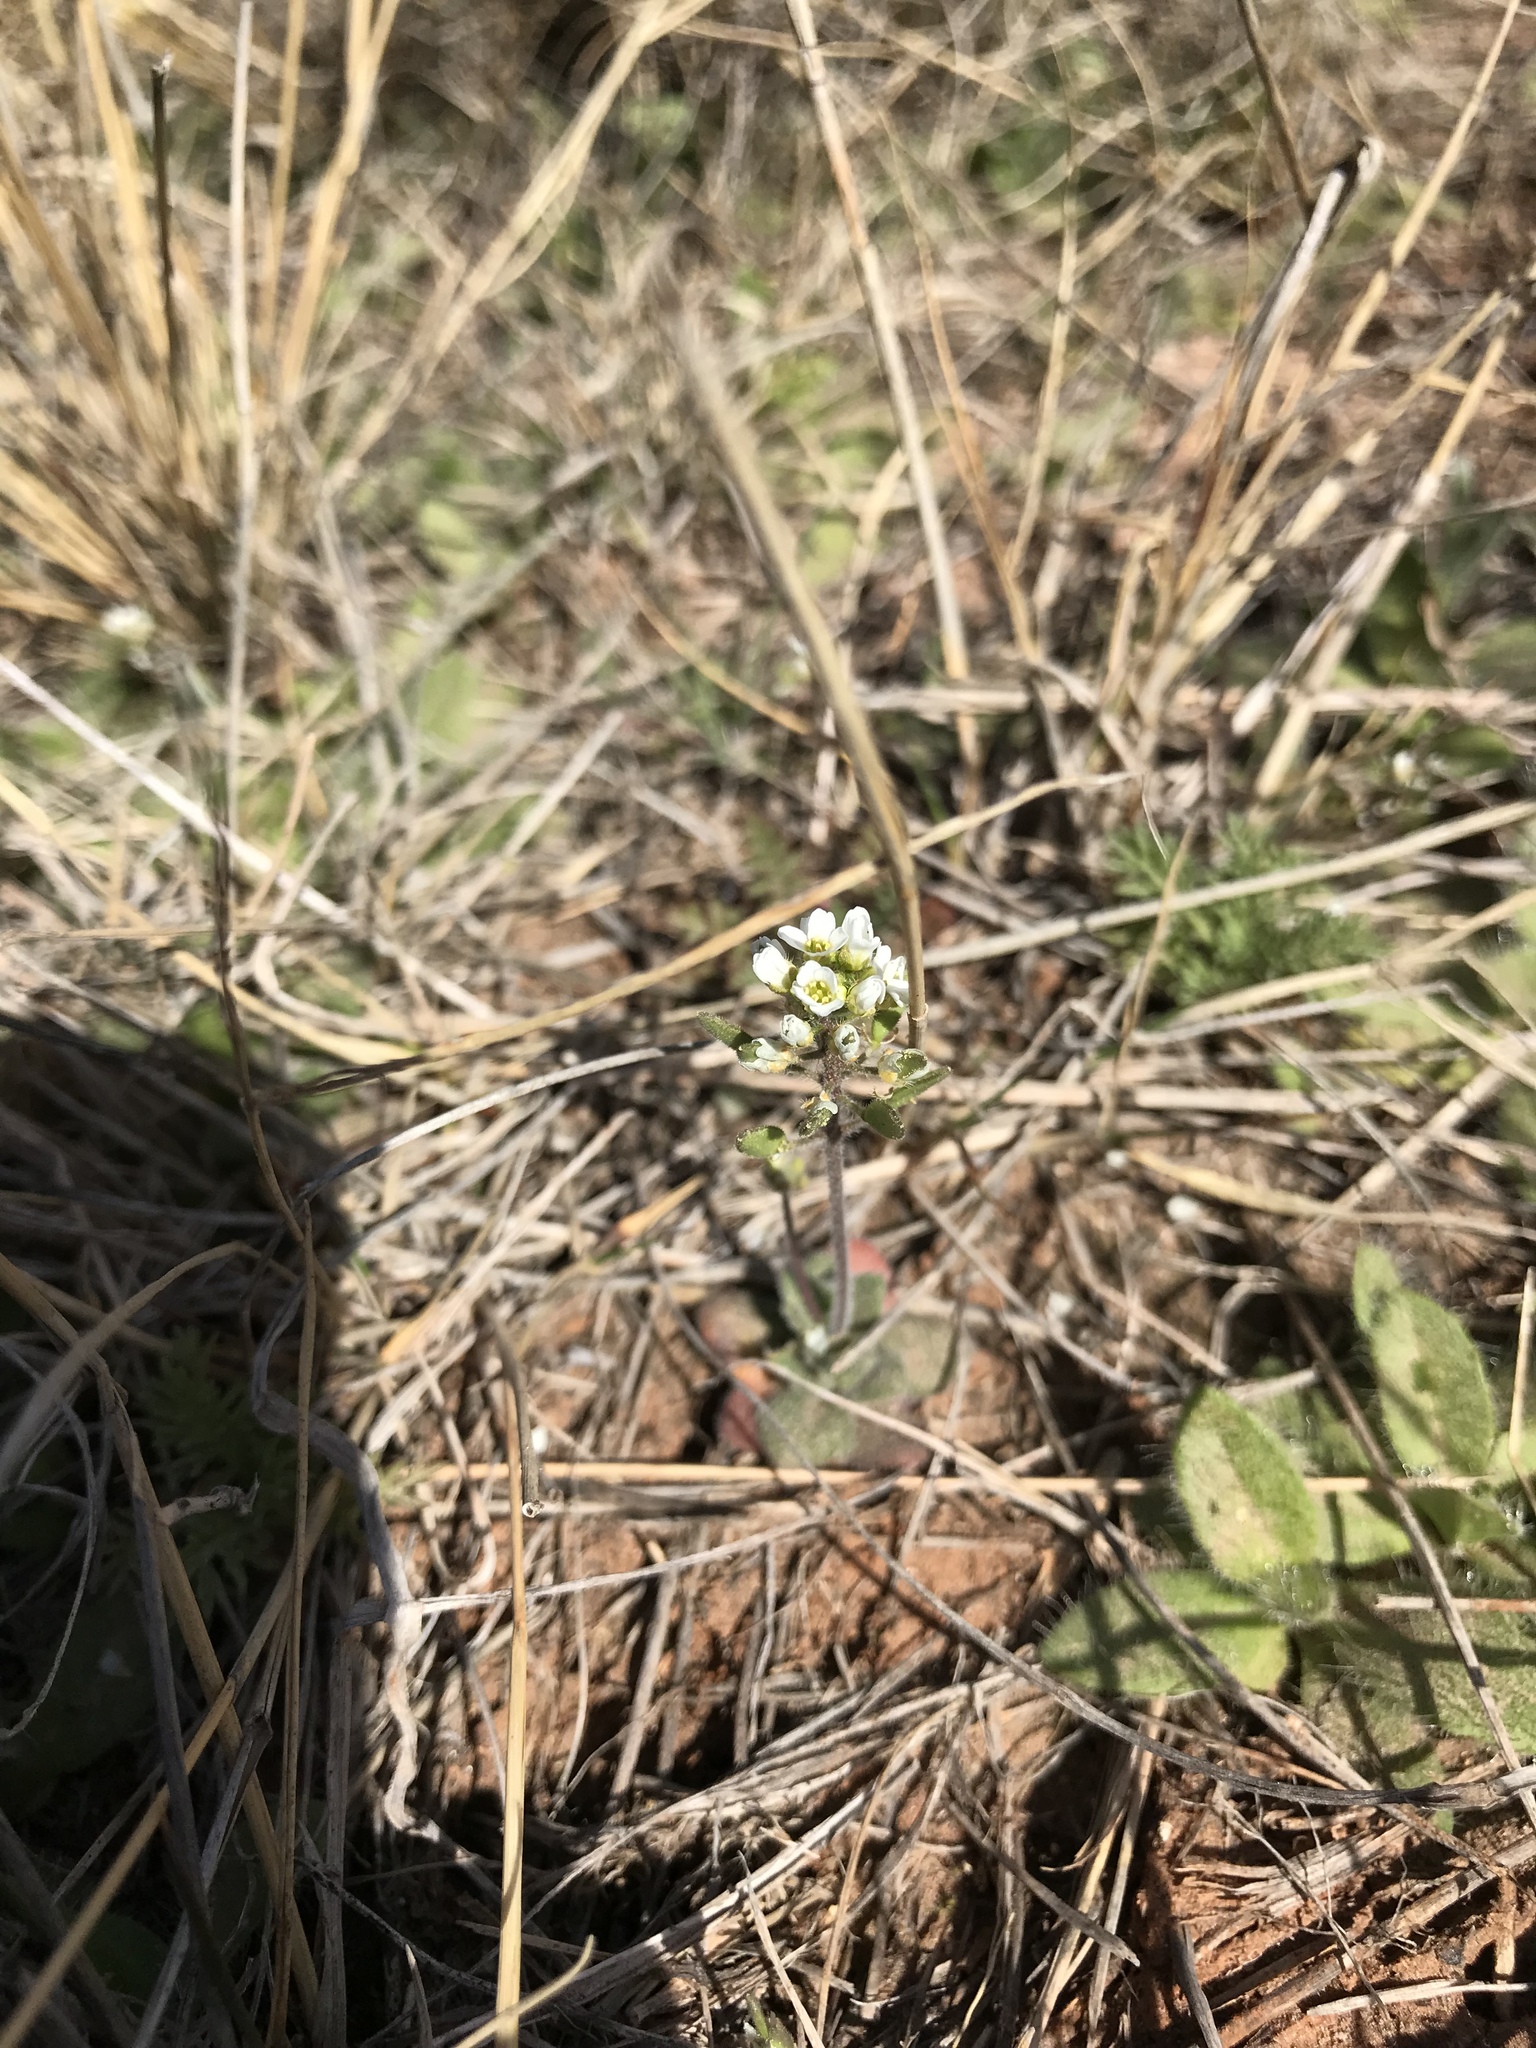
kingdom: Plantae
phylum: Tracheophyta
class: Magnoliopsida
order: Brassicales
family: Brassicaceae
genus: Tomostima
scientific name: Tomostima cuneifolia
